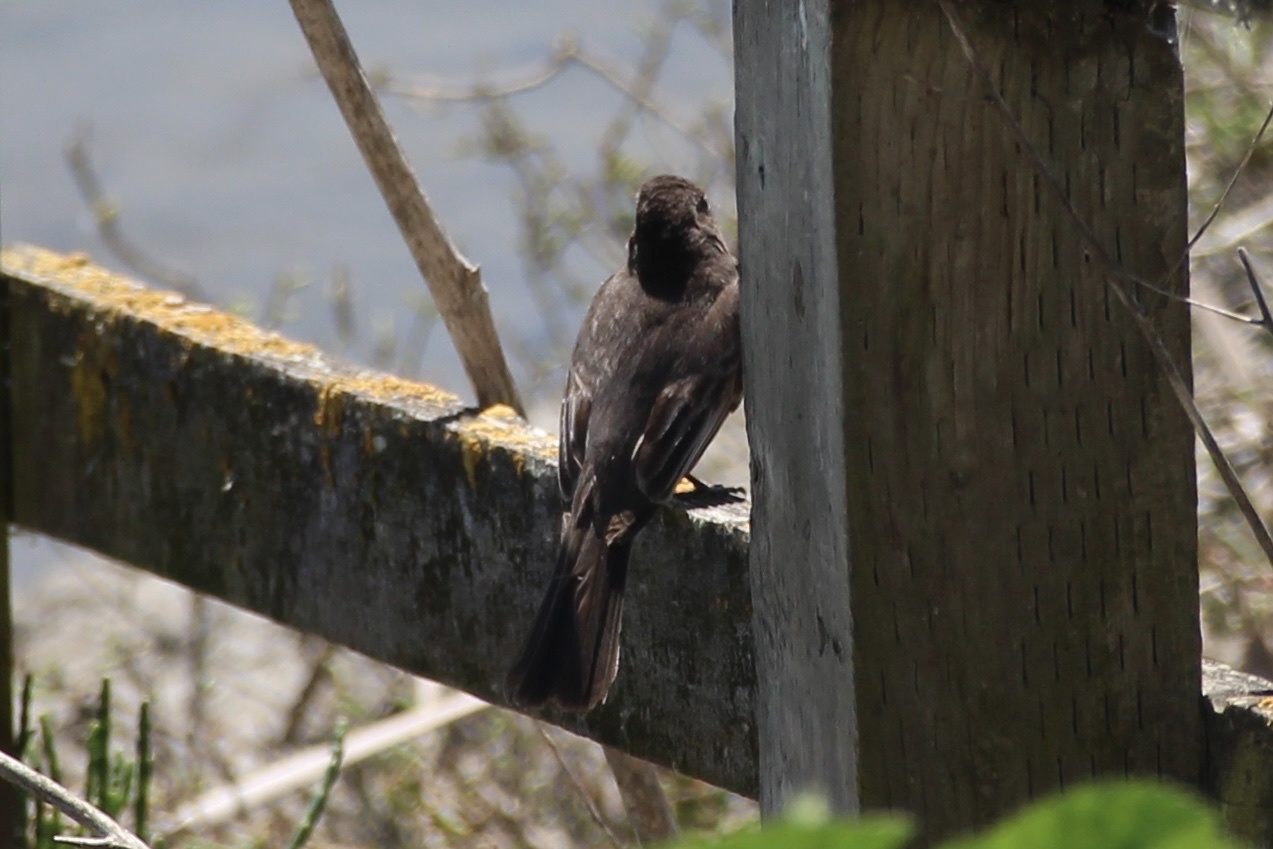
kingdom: Animalia
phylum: Chordata
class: Aves
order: Passeriformes
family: Tyrannidae
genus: Sayornis
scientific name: Sayornis nigricans
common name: Black phoebe
